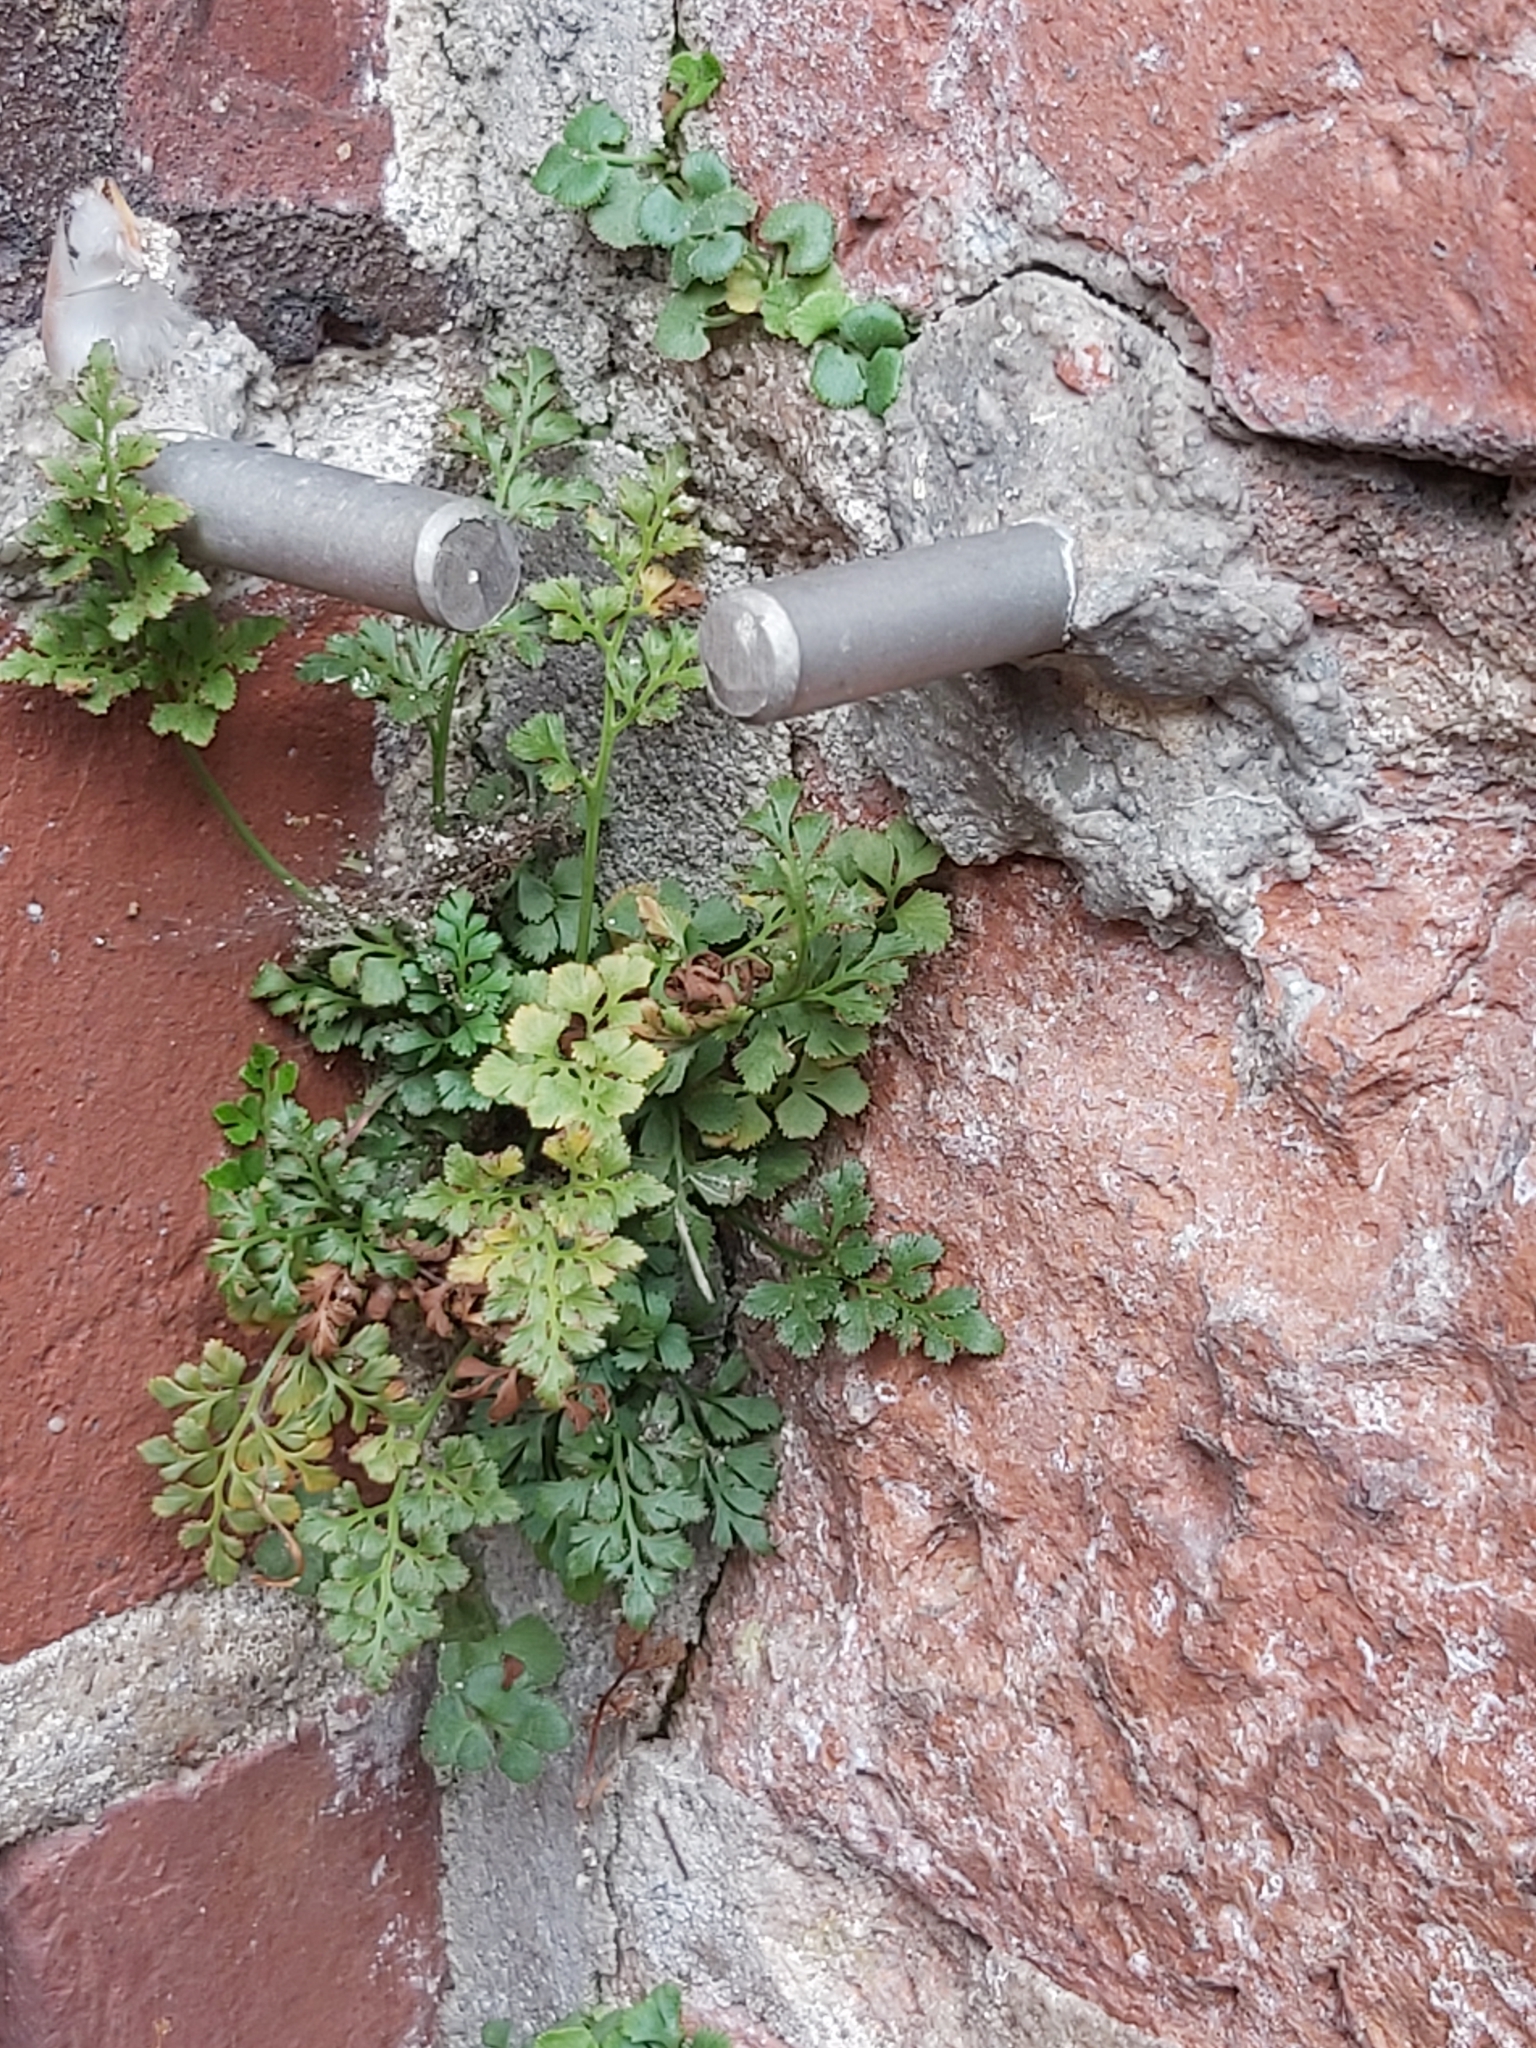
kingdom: Plantae
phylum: Tracheophyta
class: Polypodiopsida
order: Polypodiales
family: Aspleniaceae
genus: Asplenium
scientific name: Asplenium ruta-muraria
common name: Wall-rue
